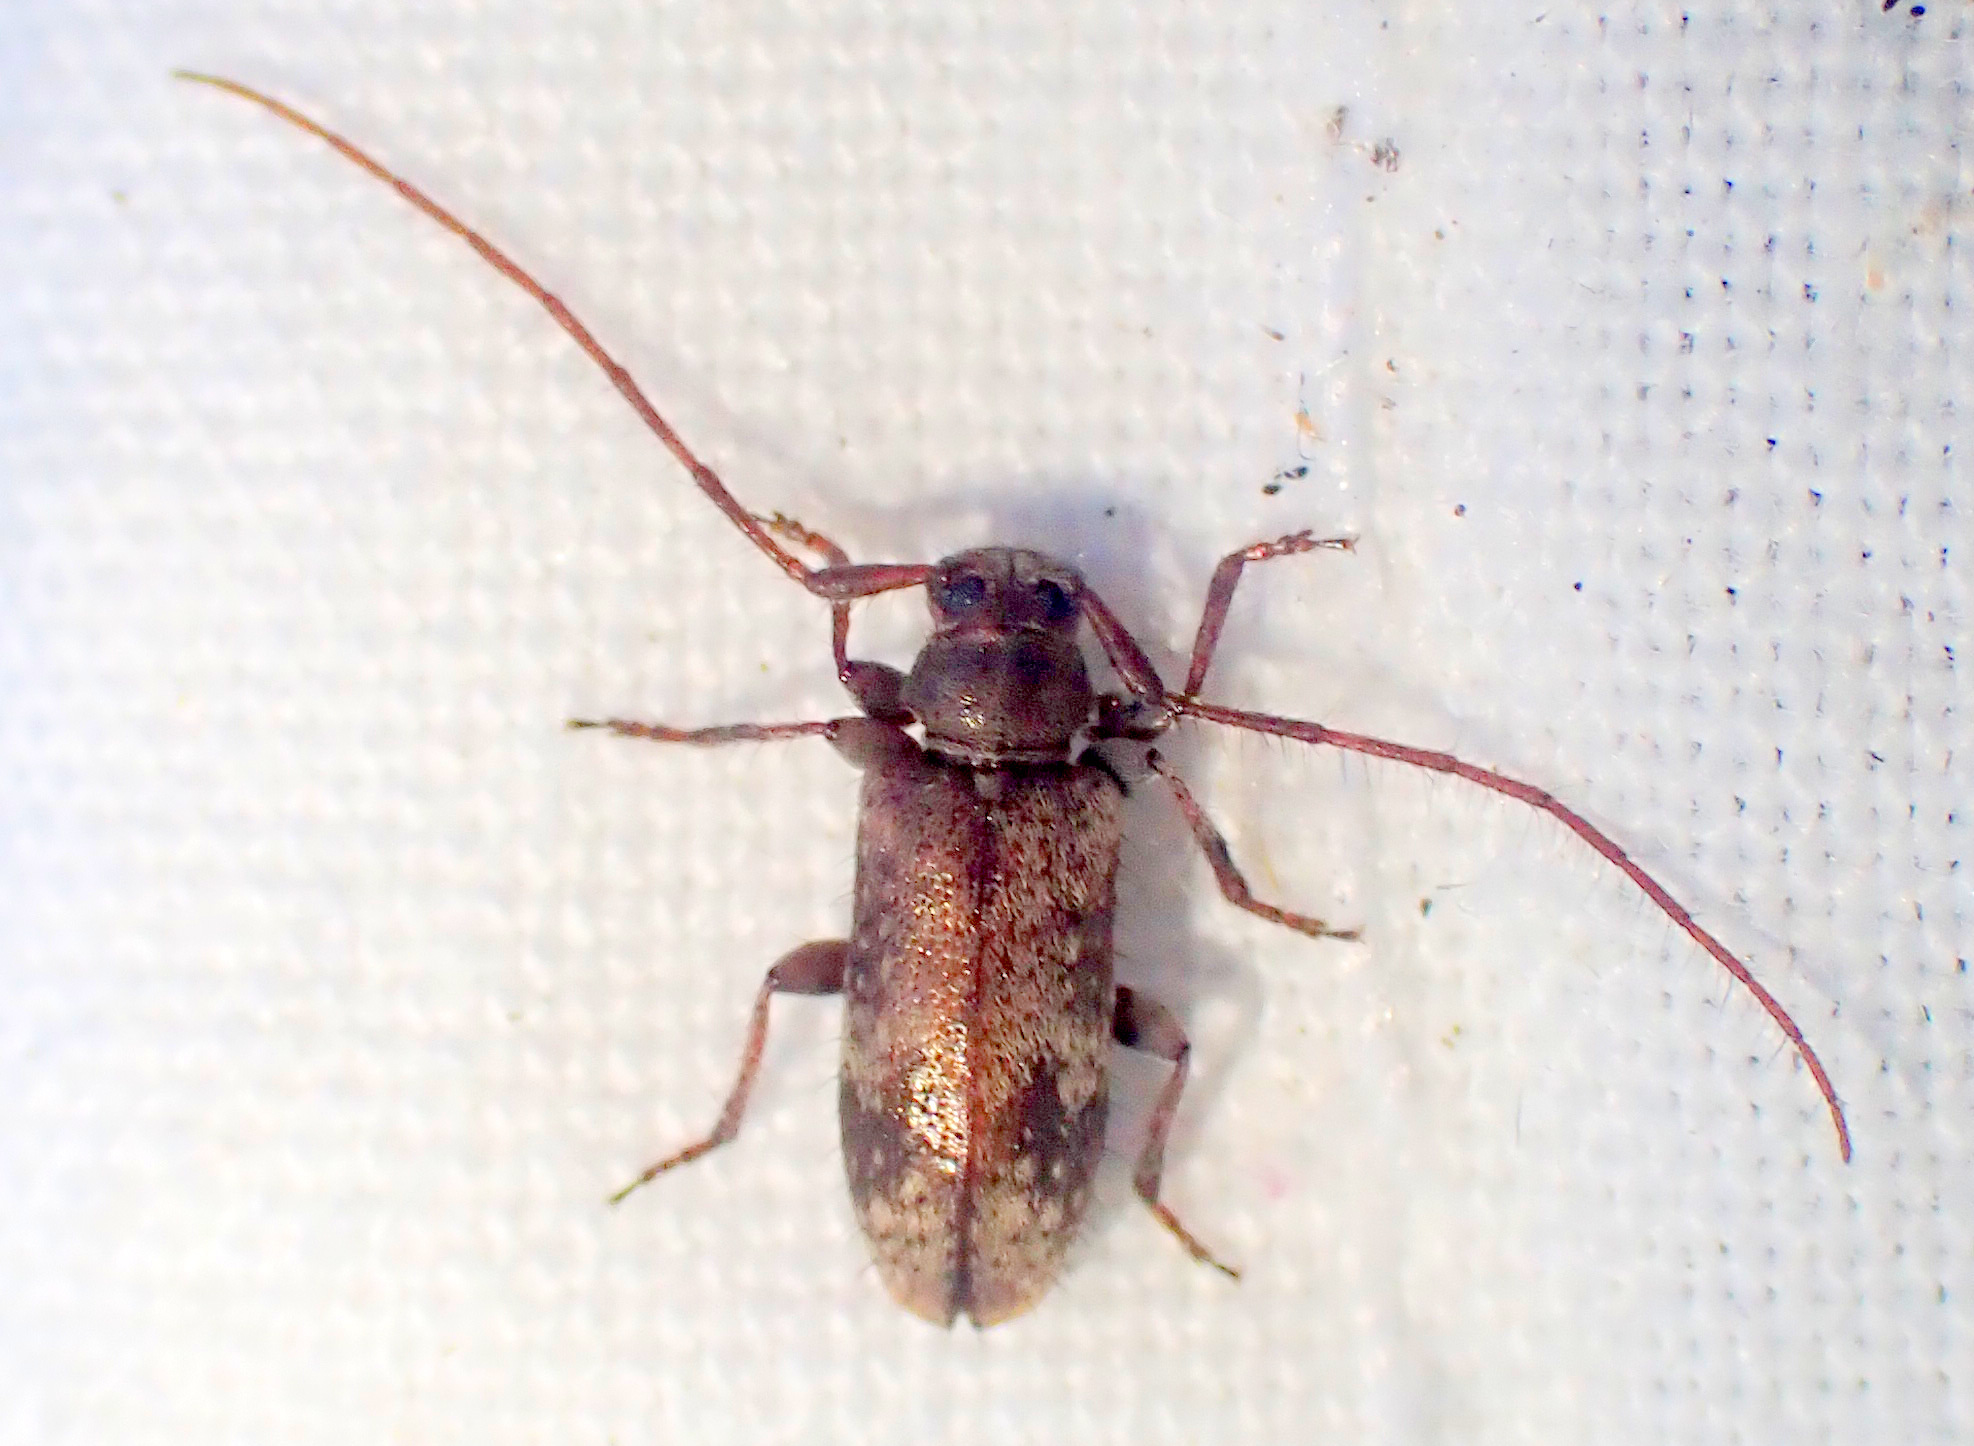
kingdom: Animalia
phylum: Arthropoda
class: Insecta
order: Coleoptera
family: Cerambycidae
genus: Exocentrus
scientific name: Exocentrus adspersus
